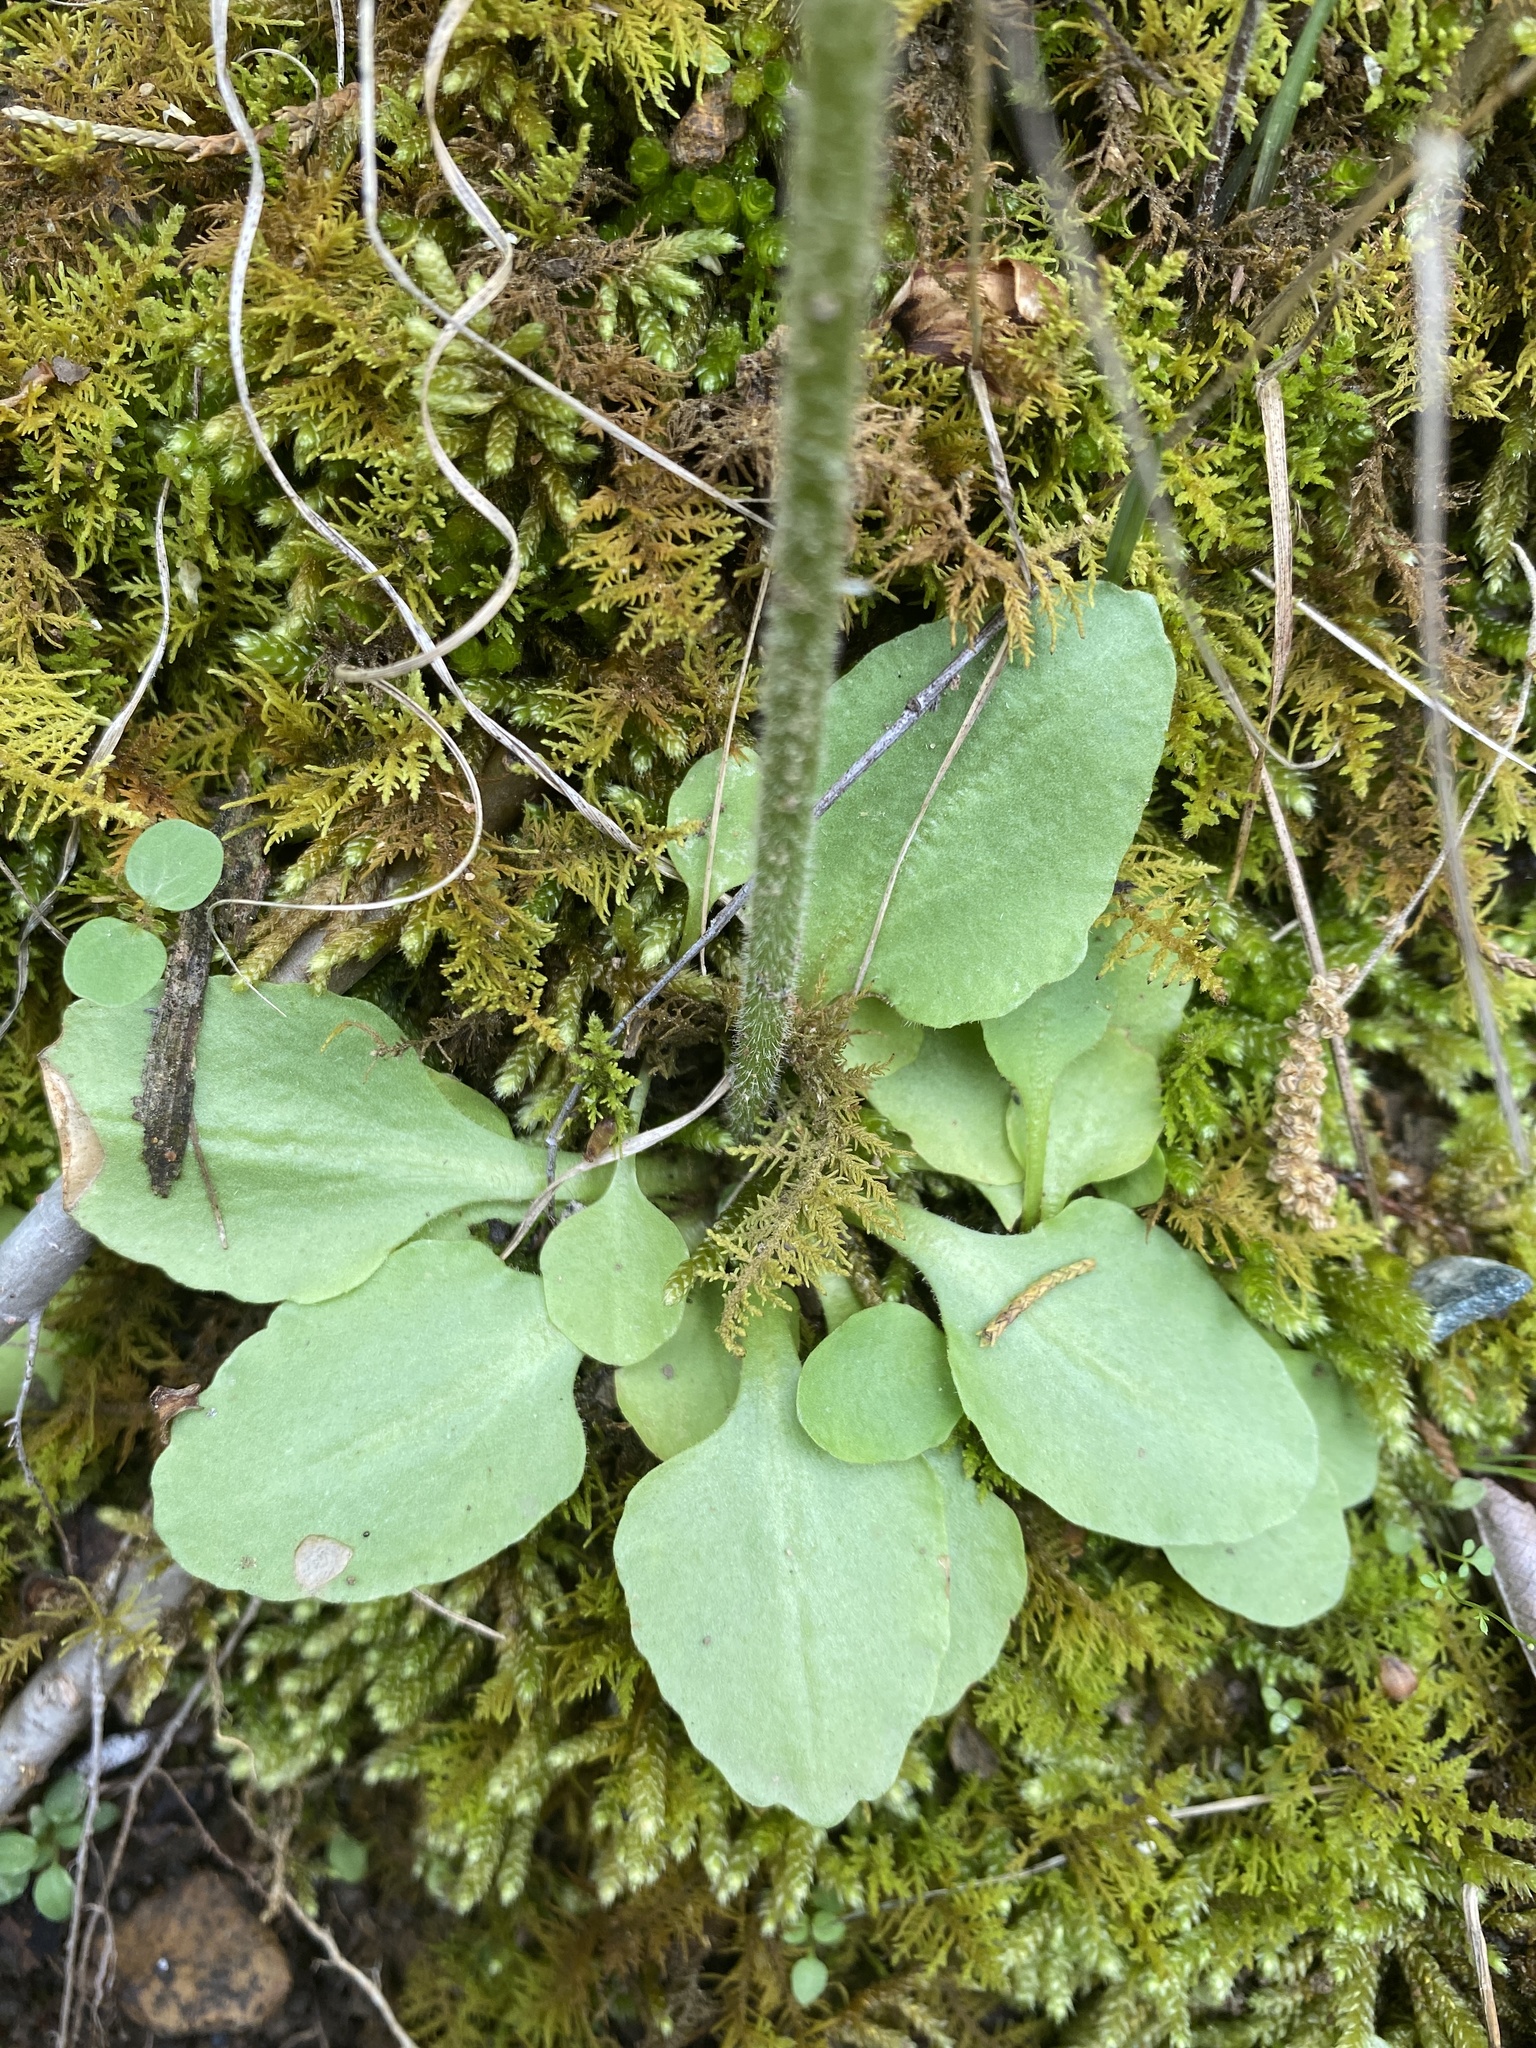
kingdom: Plantae
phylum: Tracheophyta
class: Magnoliopsida
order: Saxifragales
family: Saxifragaceae
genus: Micranthes
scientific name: Micranthes virginiensis
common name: Early saxifrage
